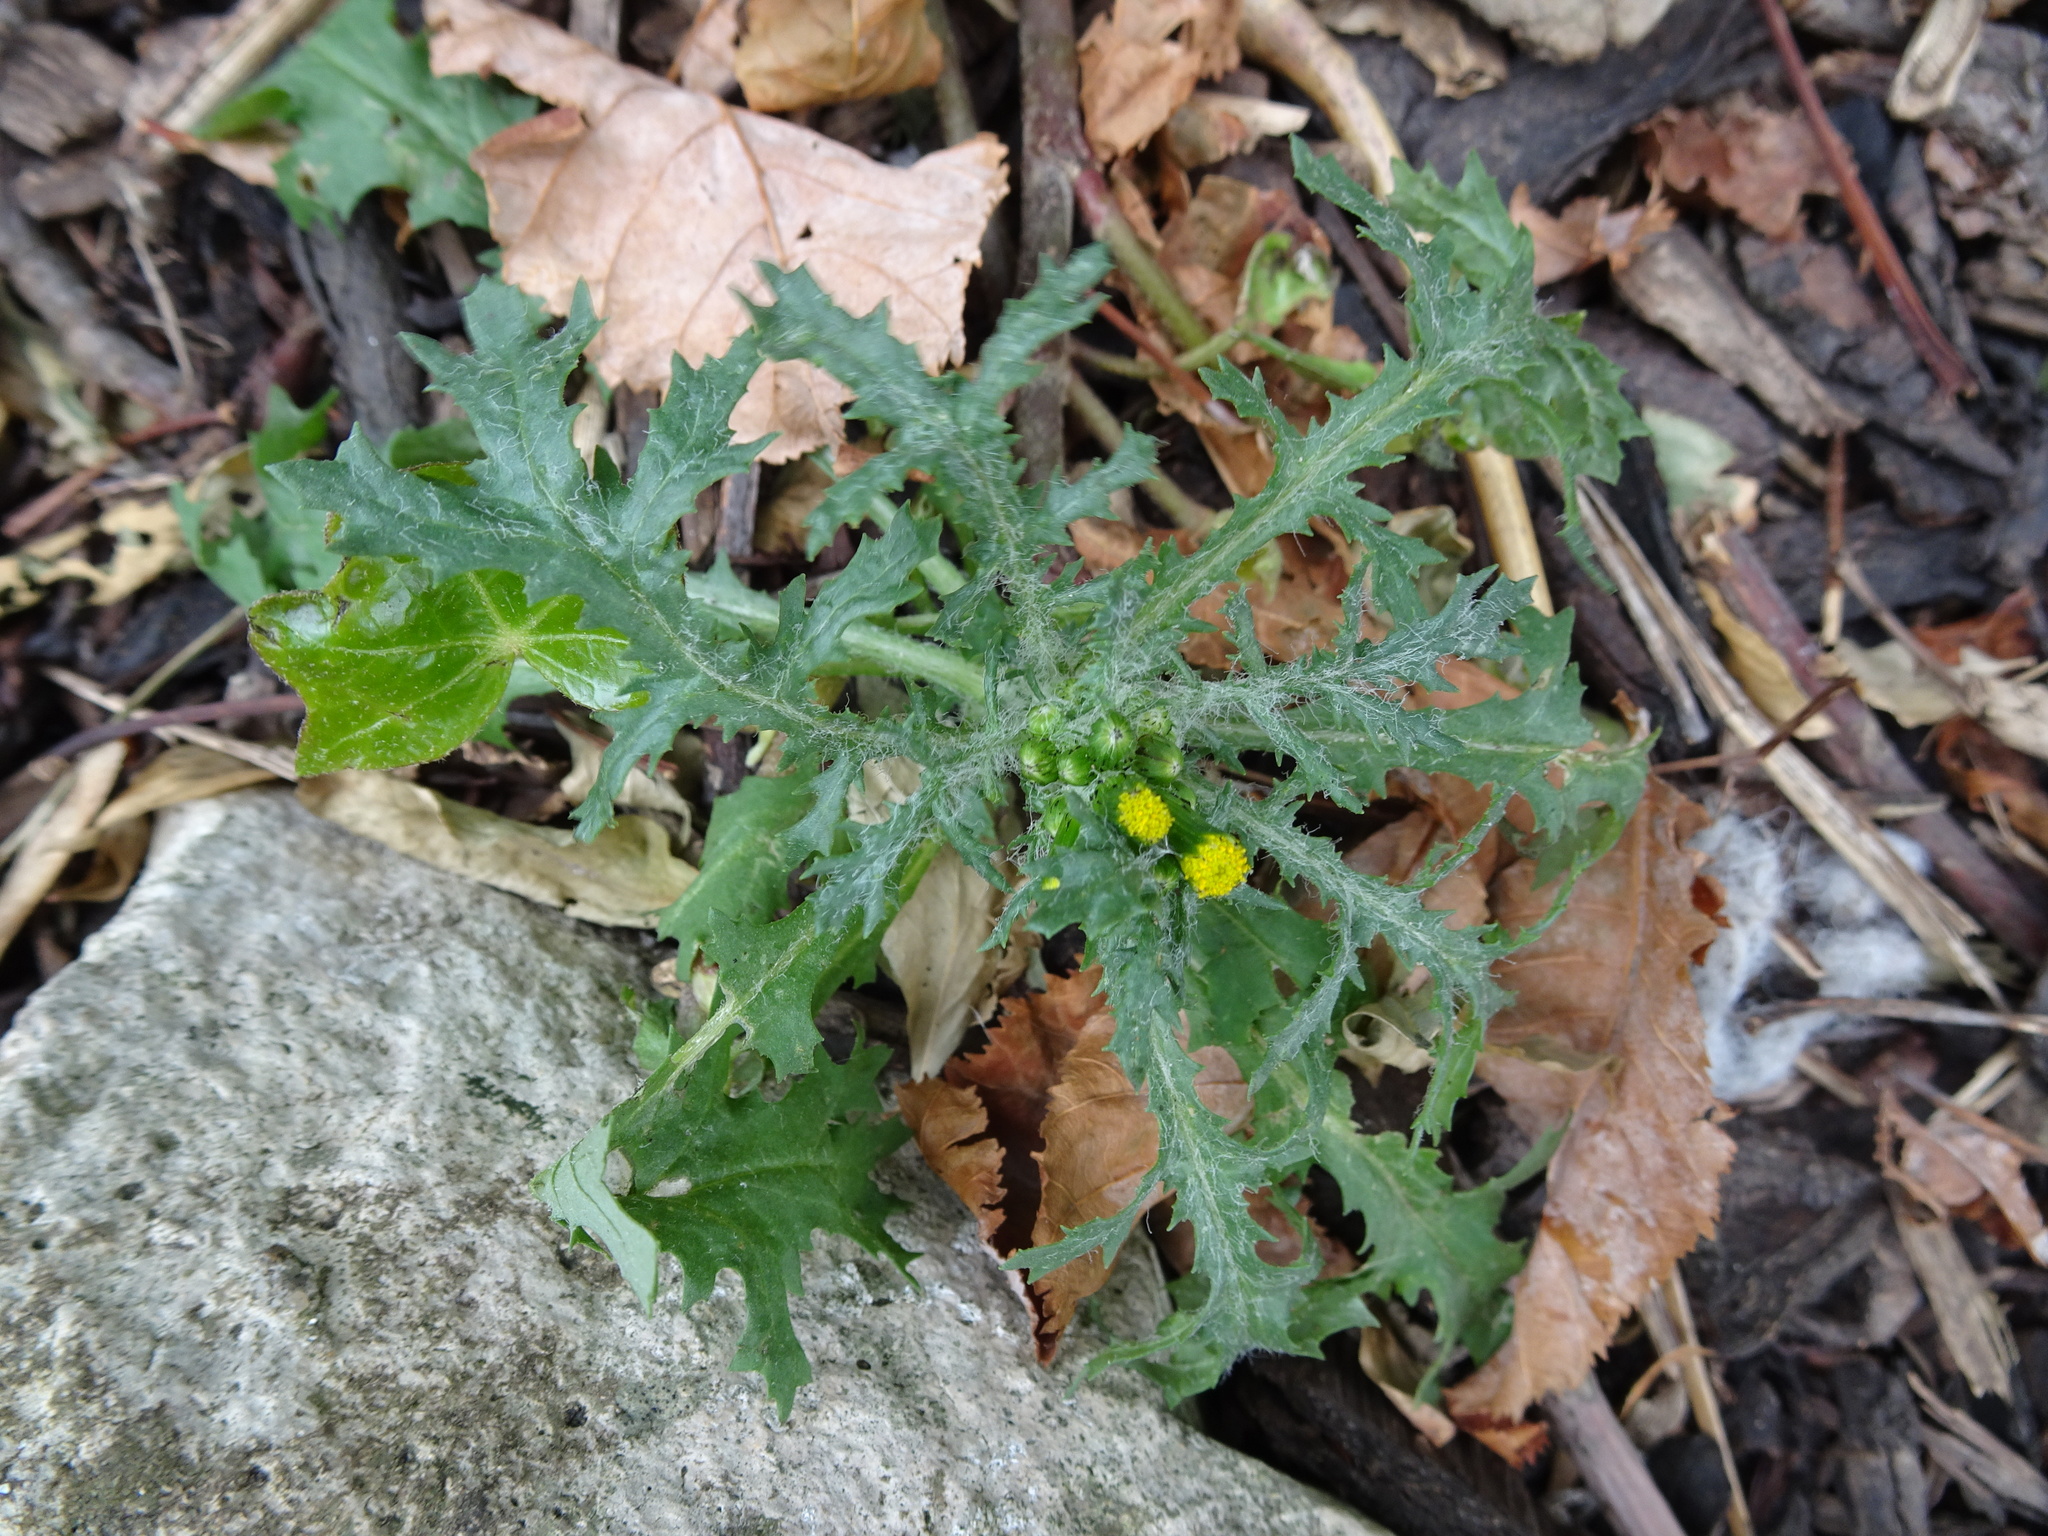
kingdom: Plantae
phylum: Tracheophyta
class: Magnoliopsida
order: Asterales
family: Asteraceae
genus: Senecio
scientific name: Senecio vulgaris
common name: Old-man-in-the-spring
